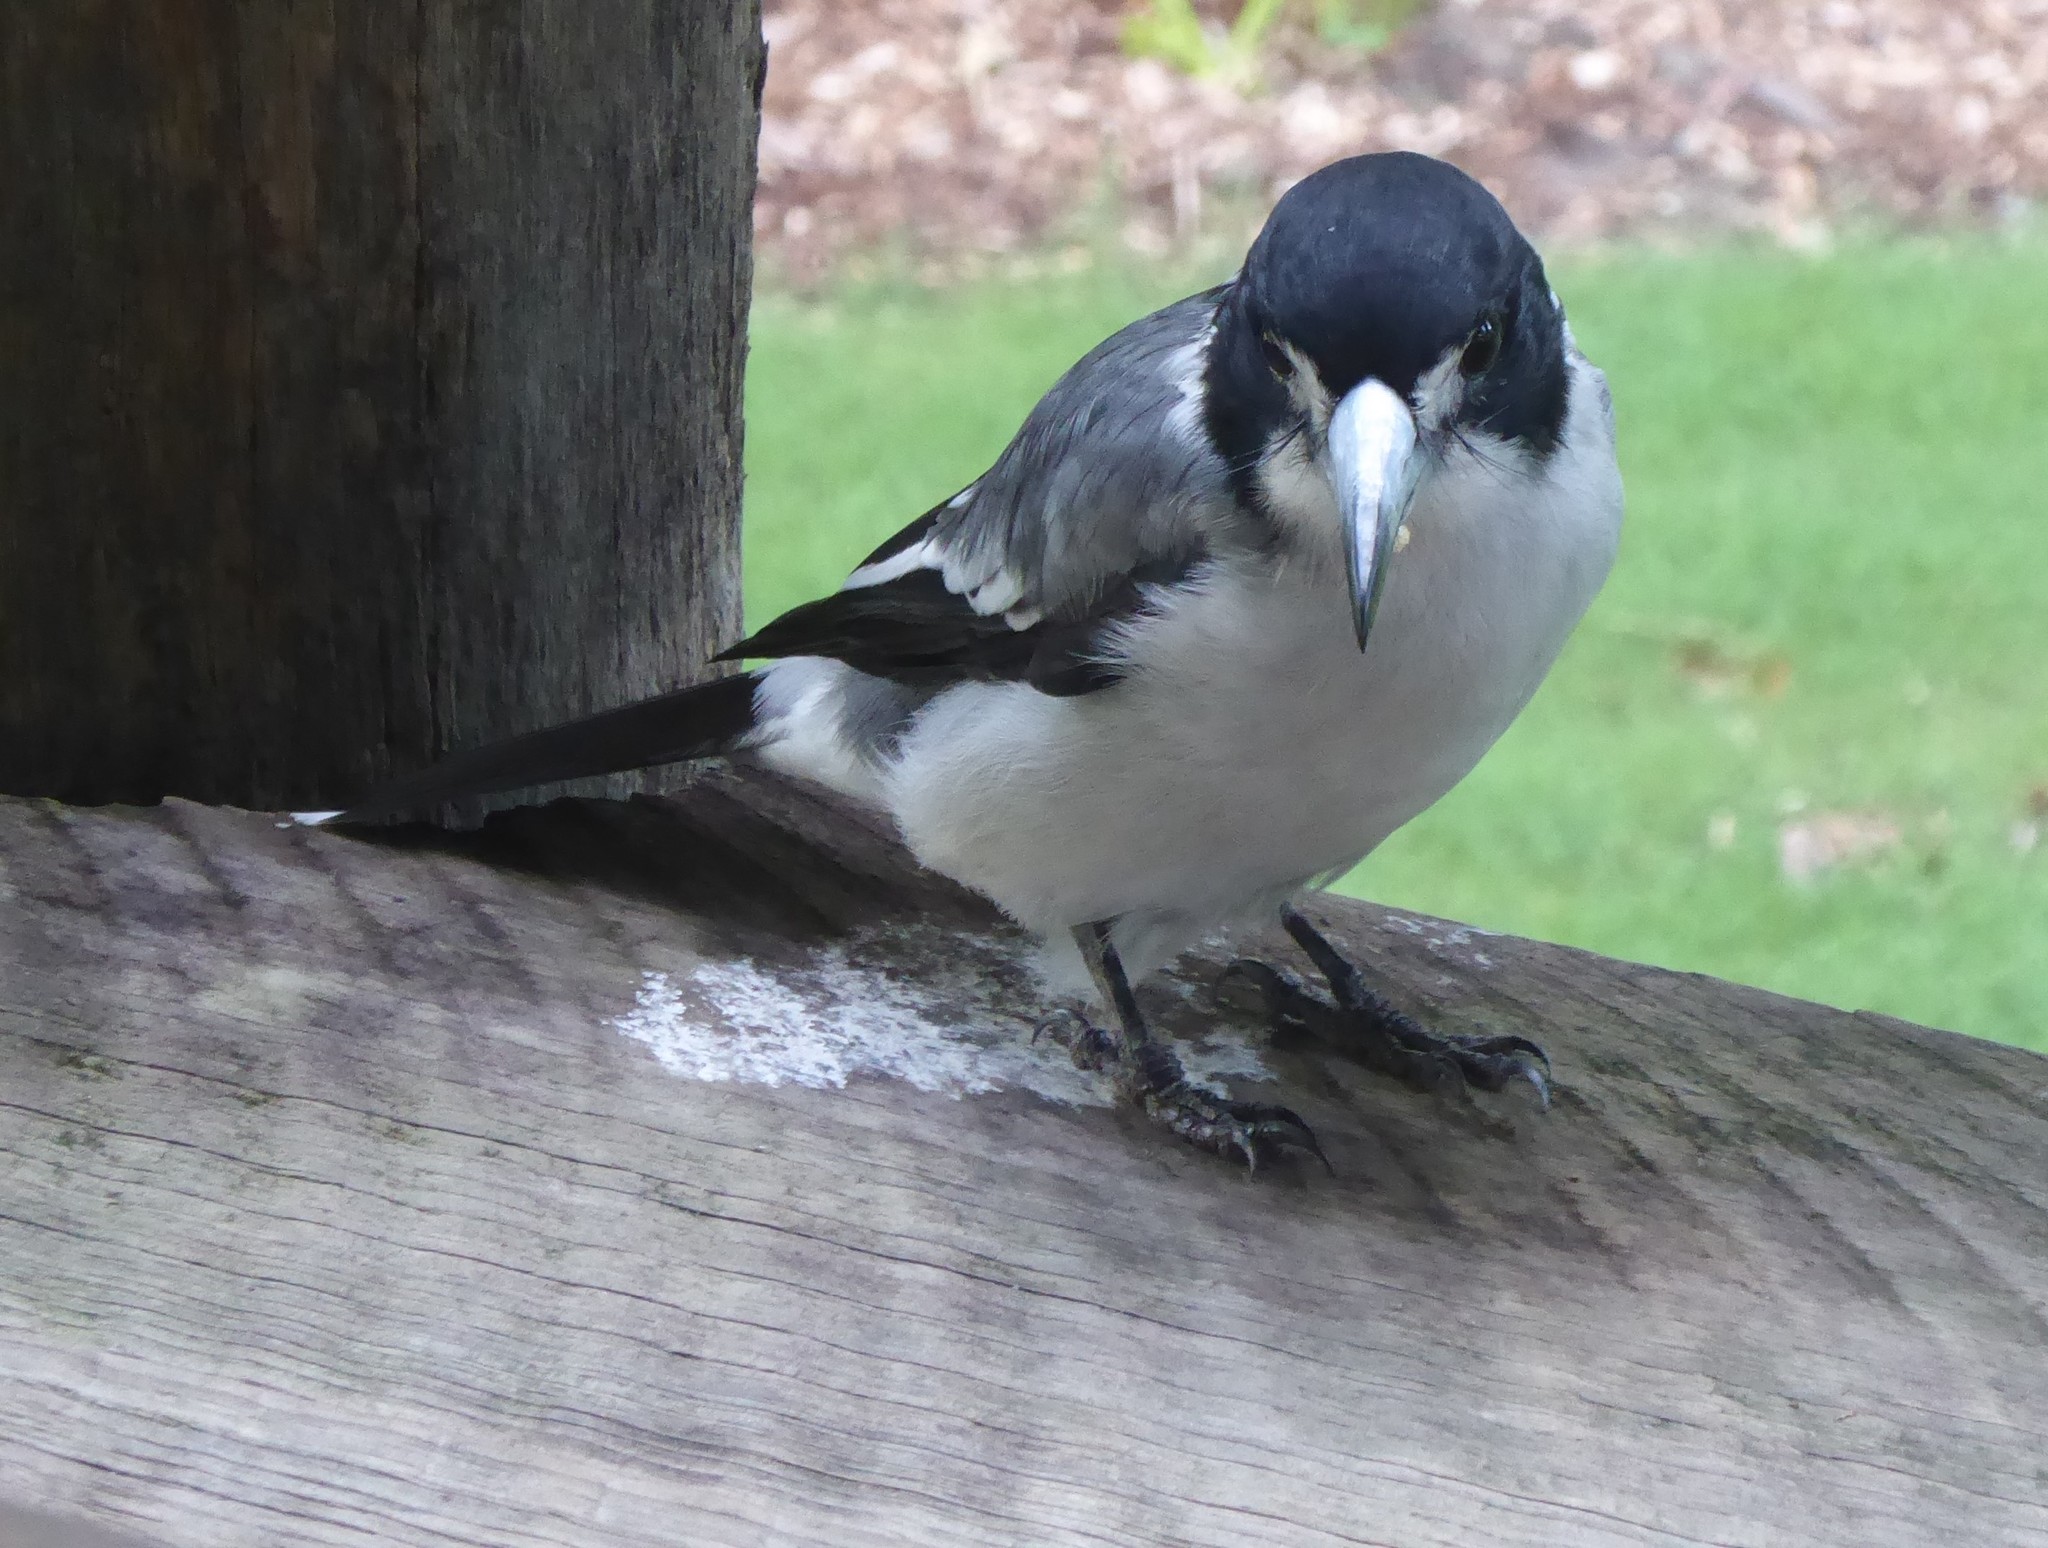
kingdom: Animalia
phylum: Chordata
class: Aves
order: Passeriformes
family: Cracticidae
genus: Cracticus
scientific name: Cracticus torquatus
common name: Grey butcherbird
